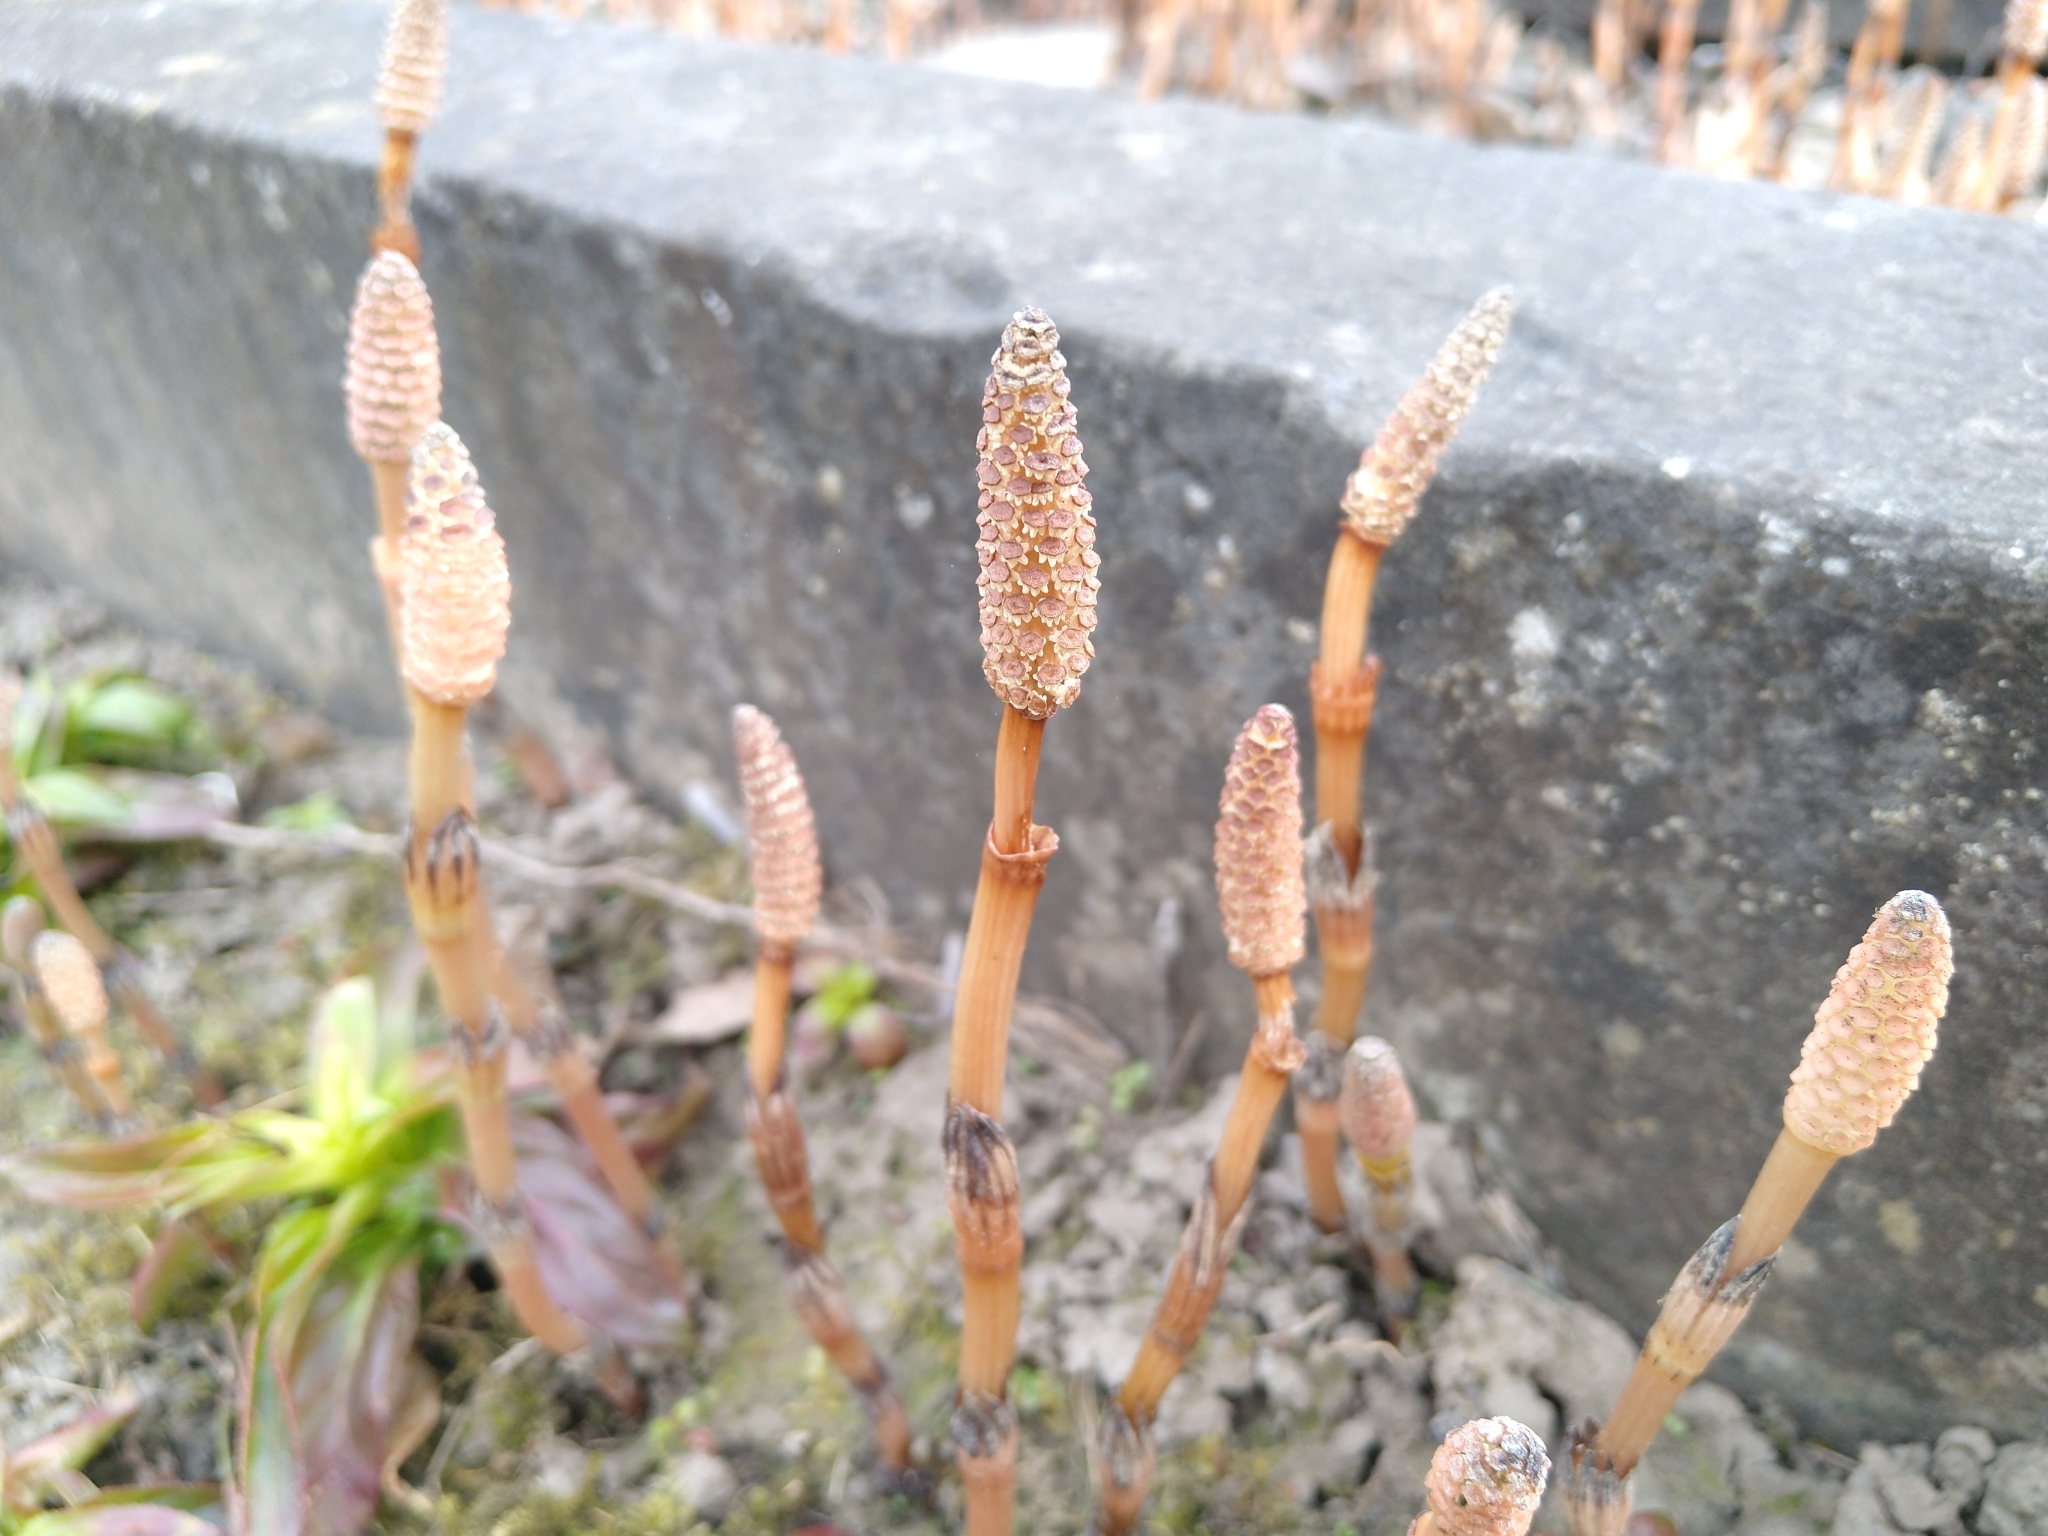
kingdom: Plantae
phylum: Tracheophyta
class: Polypodiopsida
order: Equisetales
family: Equisetaceae
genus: Equisetum
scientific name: Equisetum arvense
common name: Field horsetail
